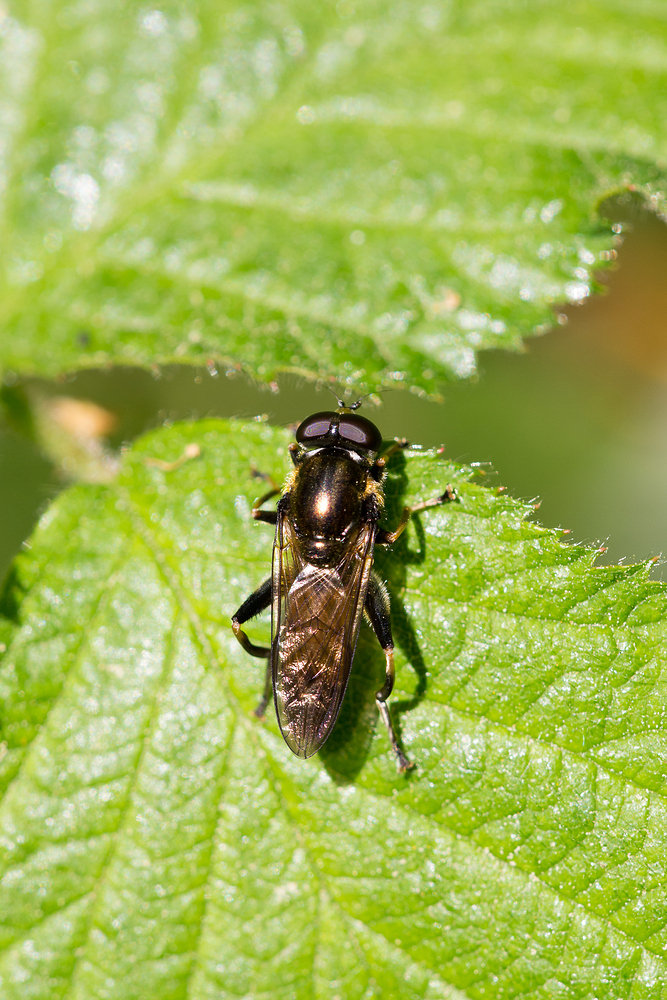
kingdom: Animalia
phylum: Arthropoda
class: Insecta
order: Diptera
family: Syrphidae
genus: Xylota
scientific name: Xylota segnis
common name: Brown-toed forest fly
